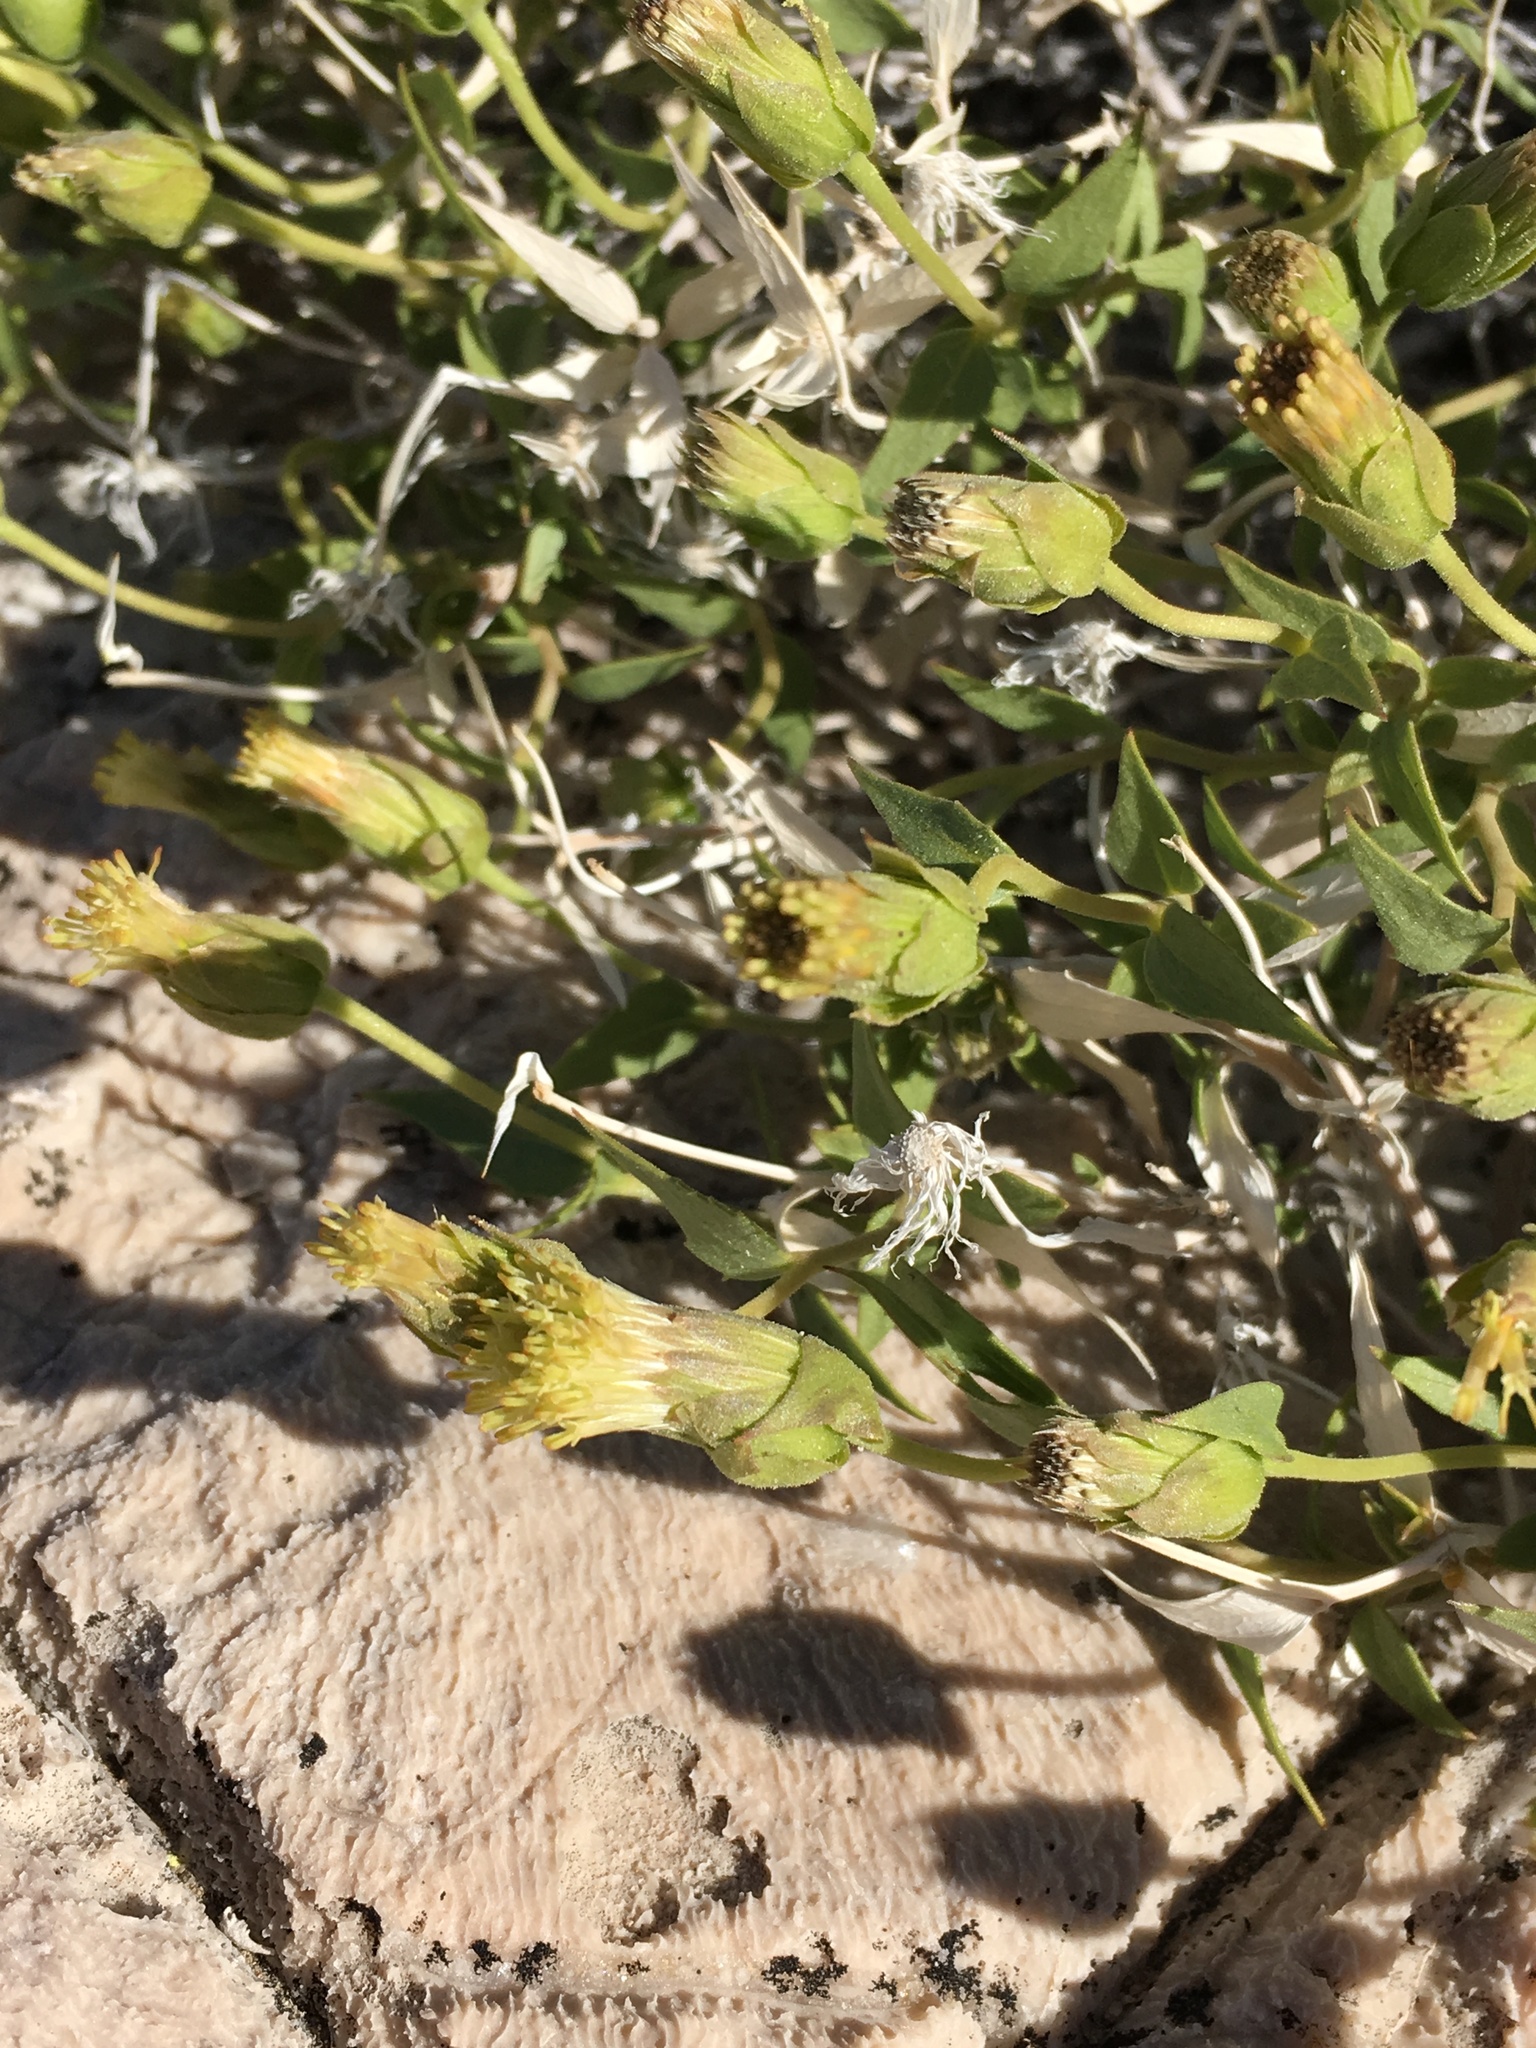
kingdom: Plantae
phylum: Tracheophyta
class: Magnoliopsida
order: Asterales
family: Asteraceae
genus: Brickellia
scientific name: Brickellia atractyloides
